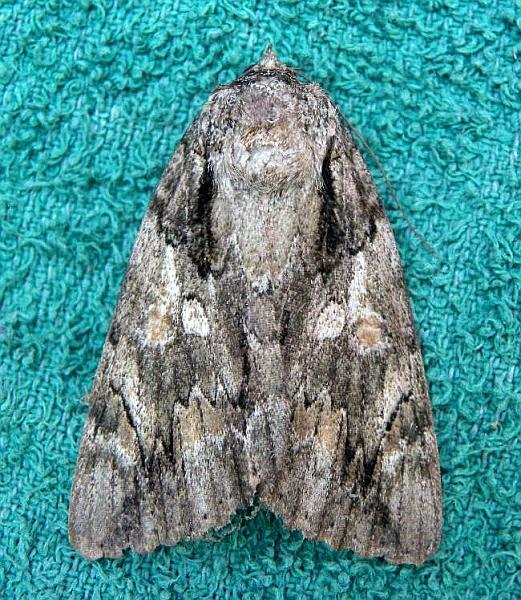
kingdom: Animalia
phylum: Arthropoda
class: Insecta
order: Lepidoptera
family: Erebidae
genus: Catocala
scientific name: Catocala neogama
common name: Bride underwing
